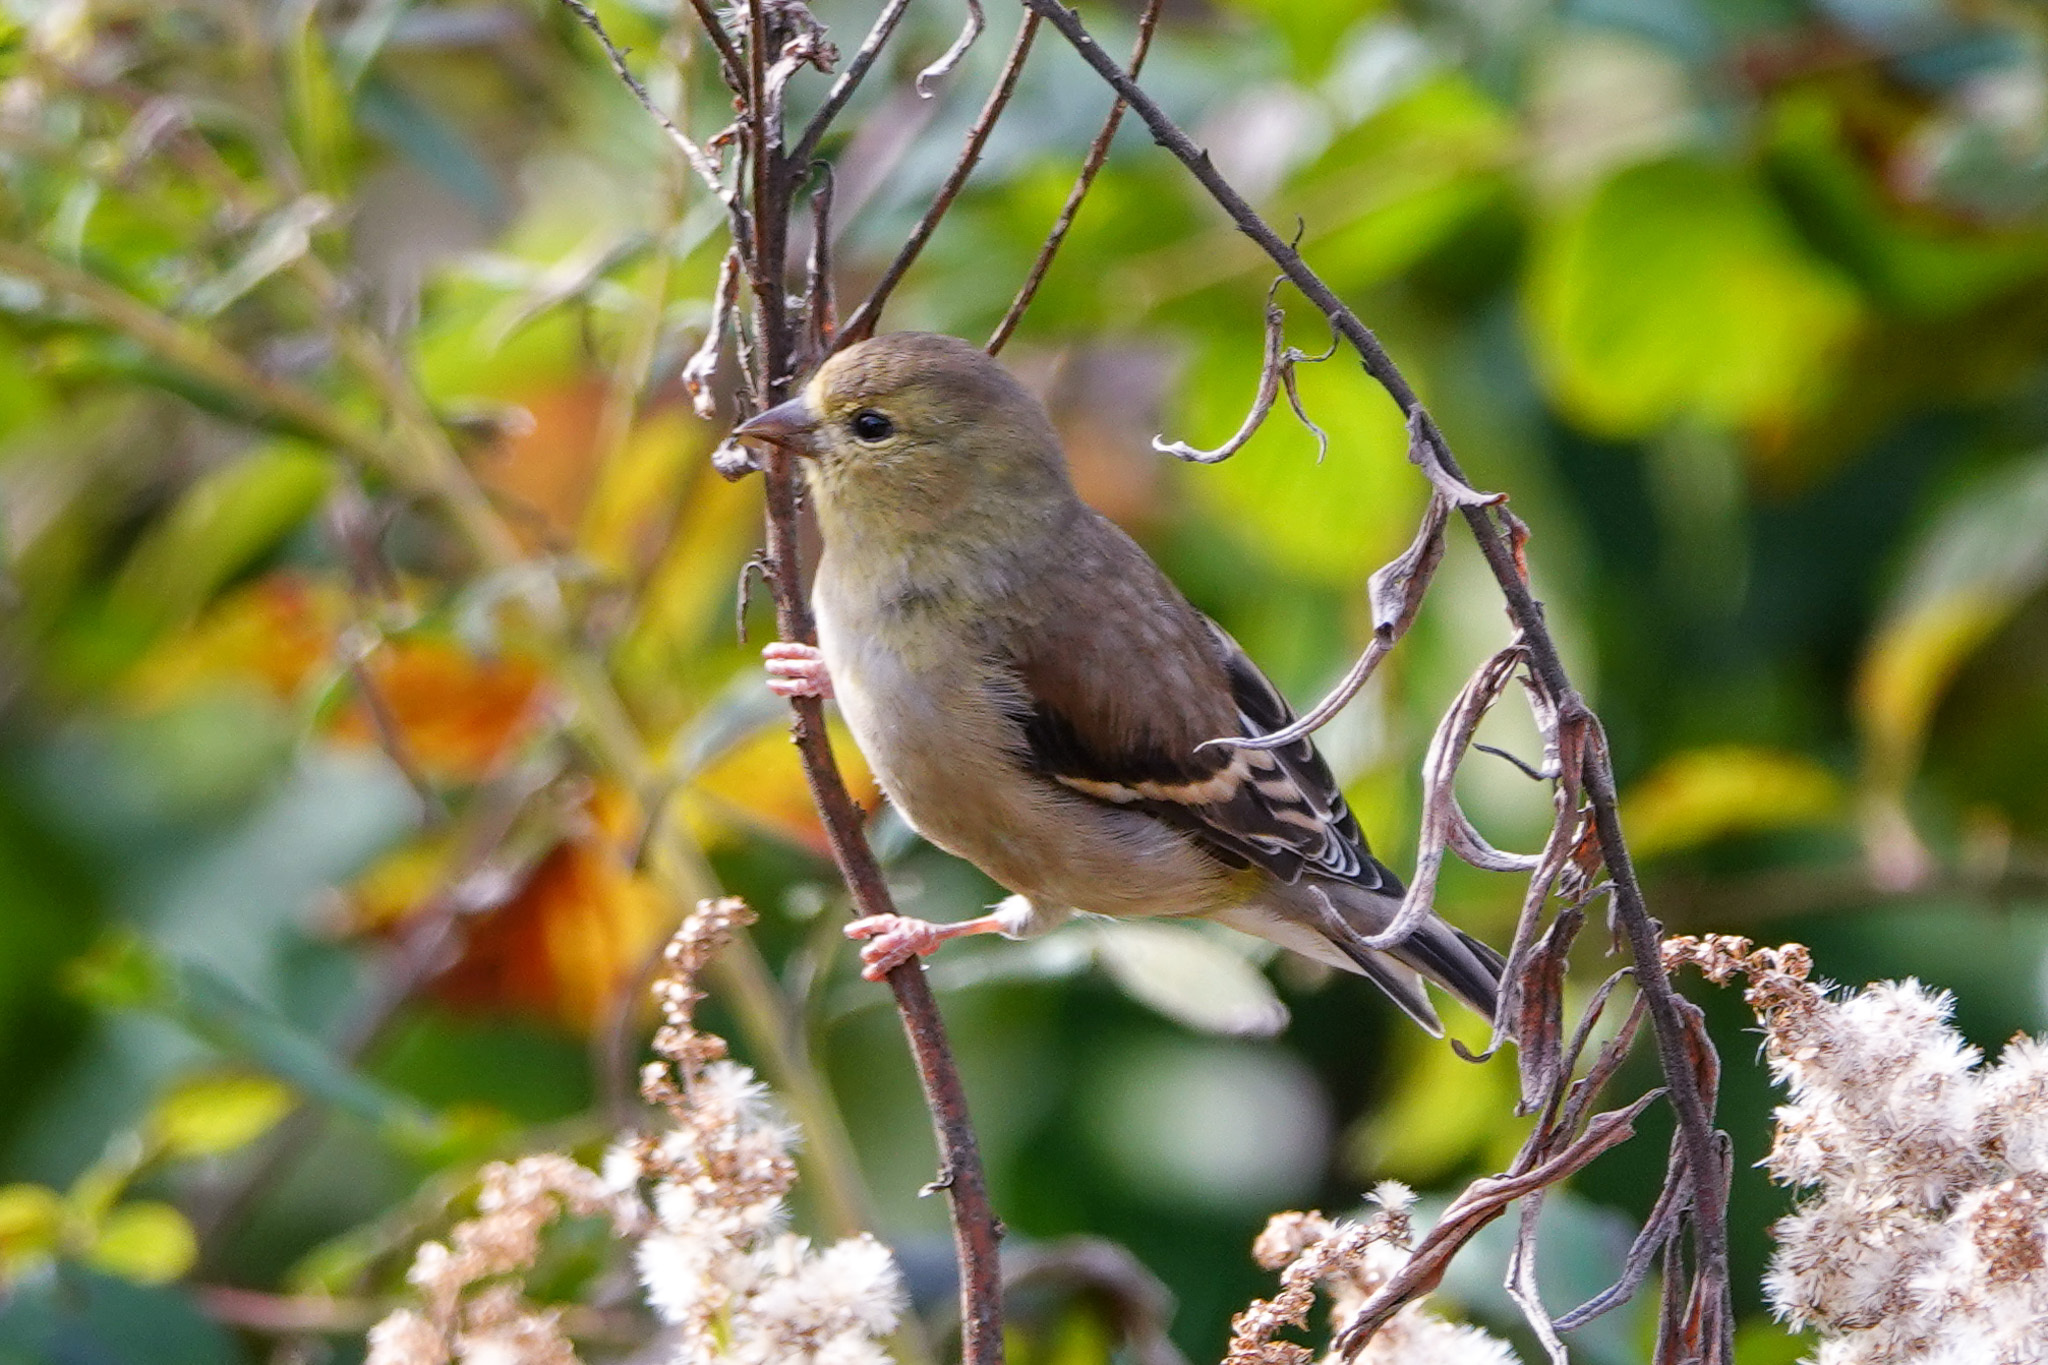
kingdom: Animalia
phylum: Chordata
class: Aves
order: Passeriformes
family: Fringillidae
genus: Spinus
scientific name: Spinus tristis
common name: American goldfinch
